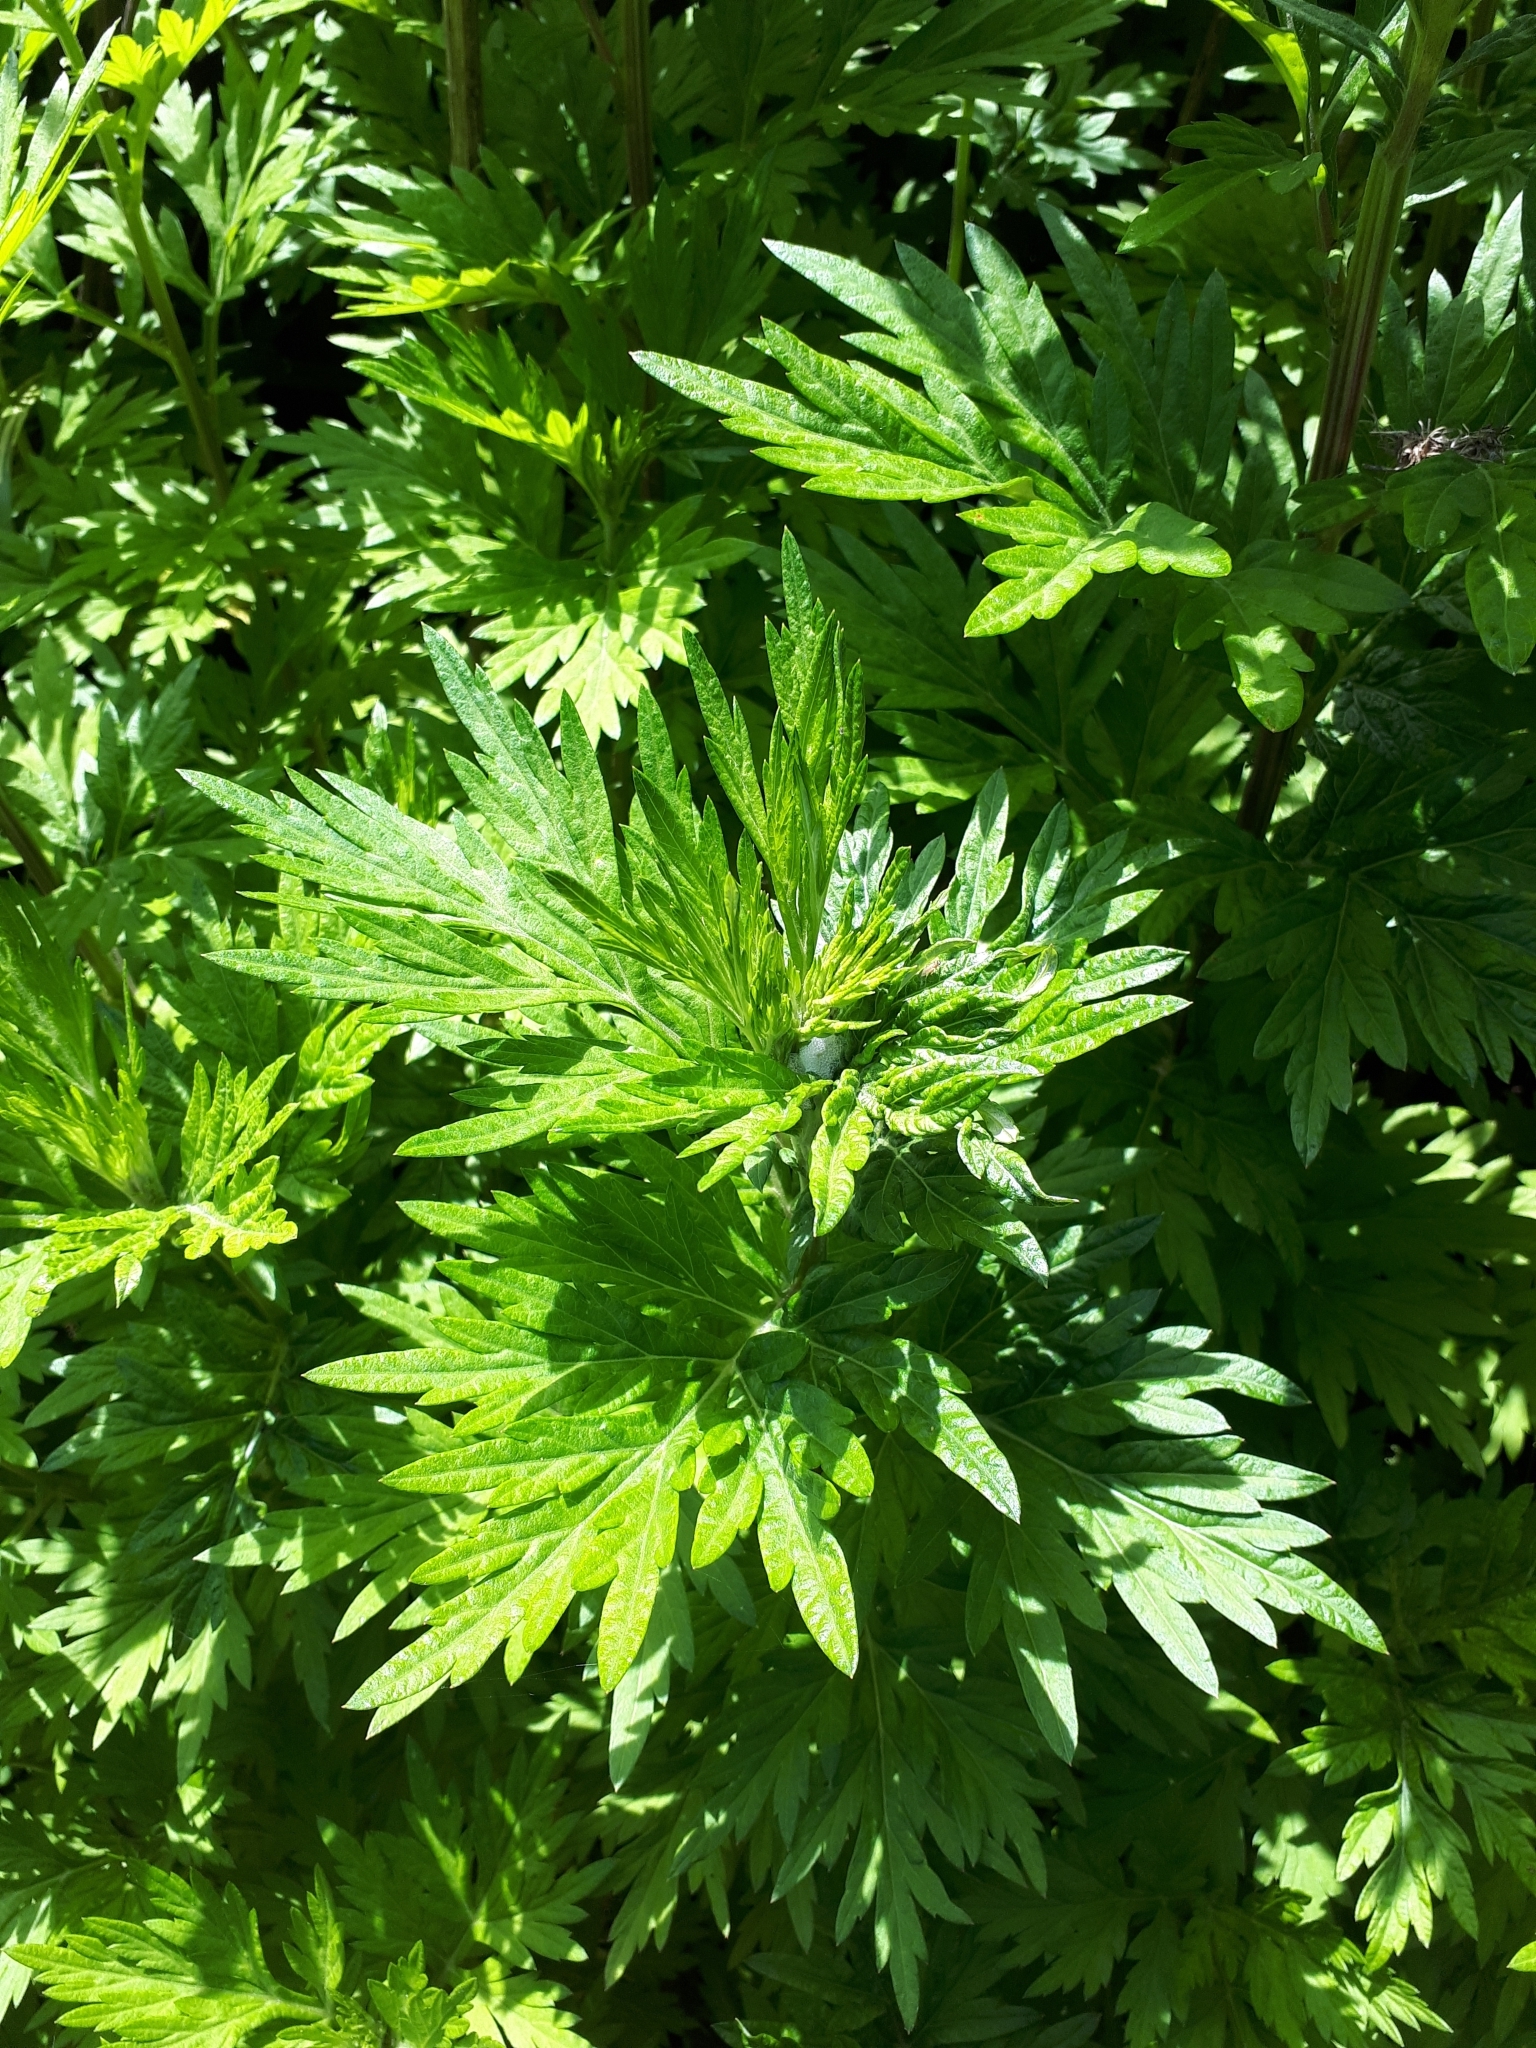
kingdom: Plantae
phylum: Tracheophyta
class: Magnoliopsida
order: Asterales
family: Asteraceae
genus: Artemisia
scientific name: Artemisia vulgaris
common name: Mugwort
